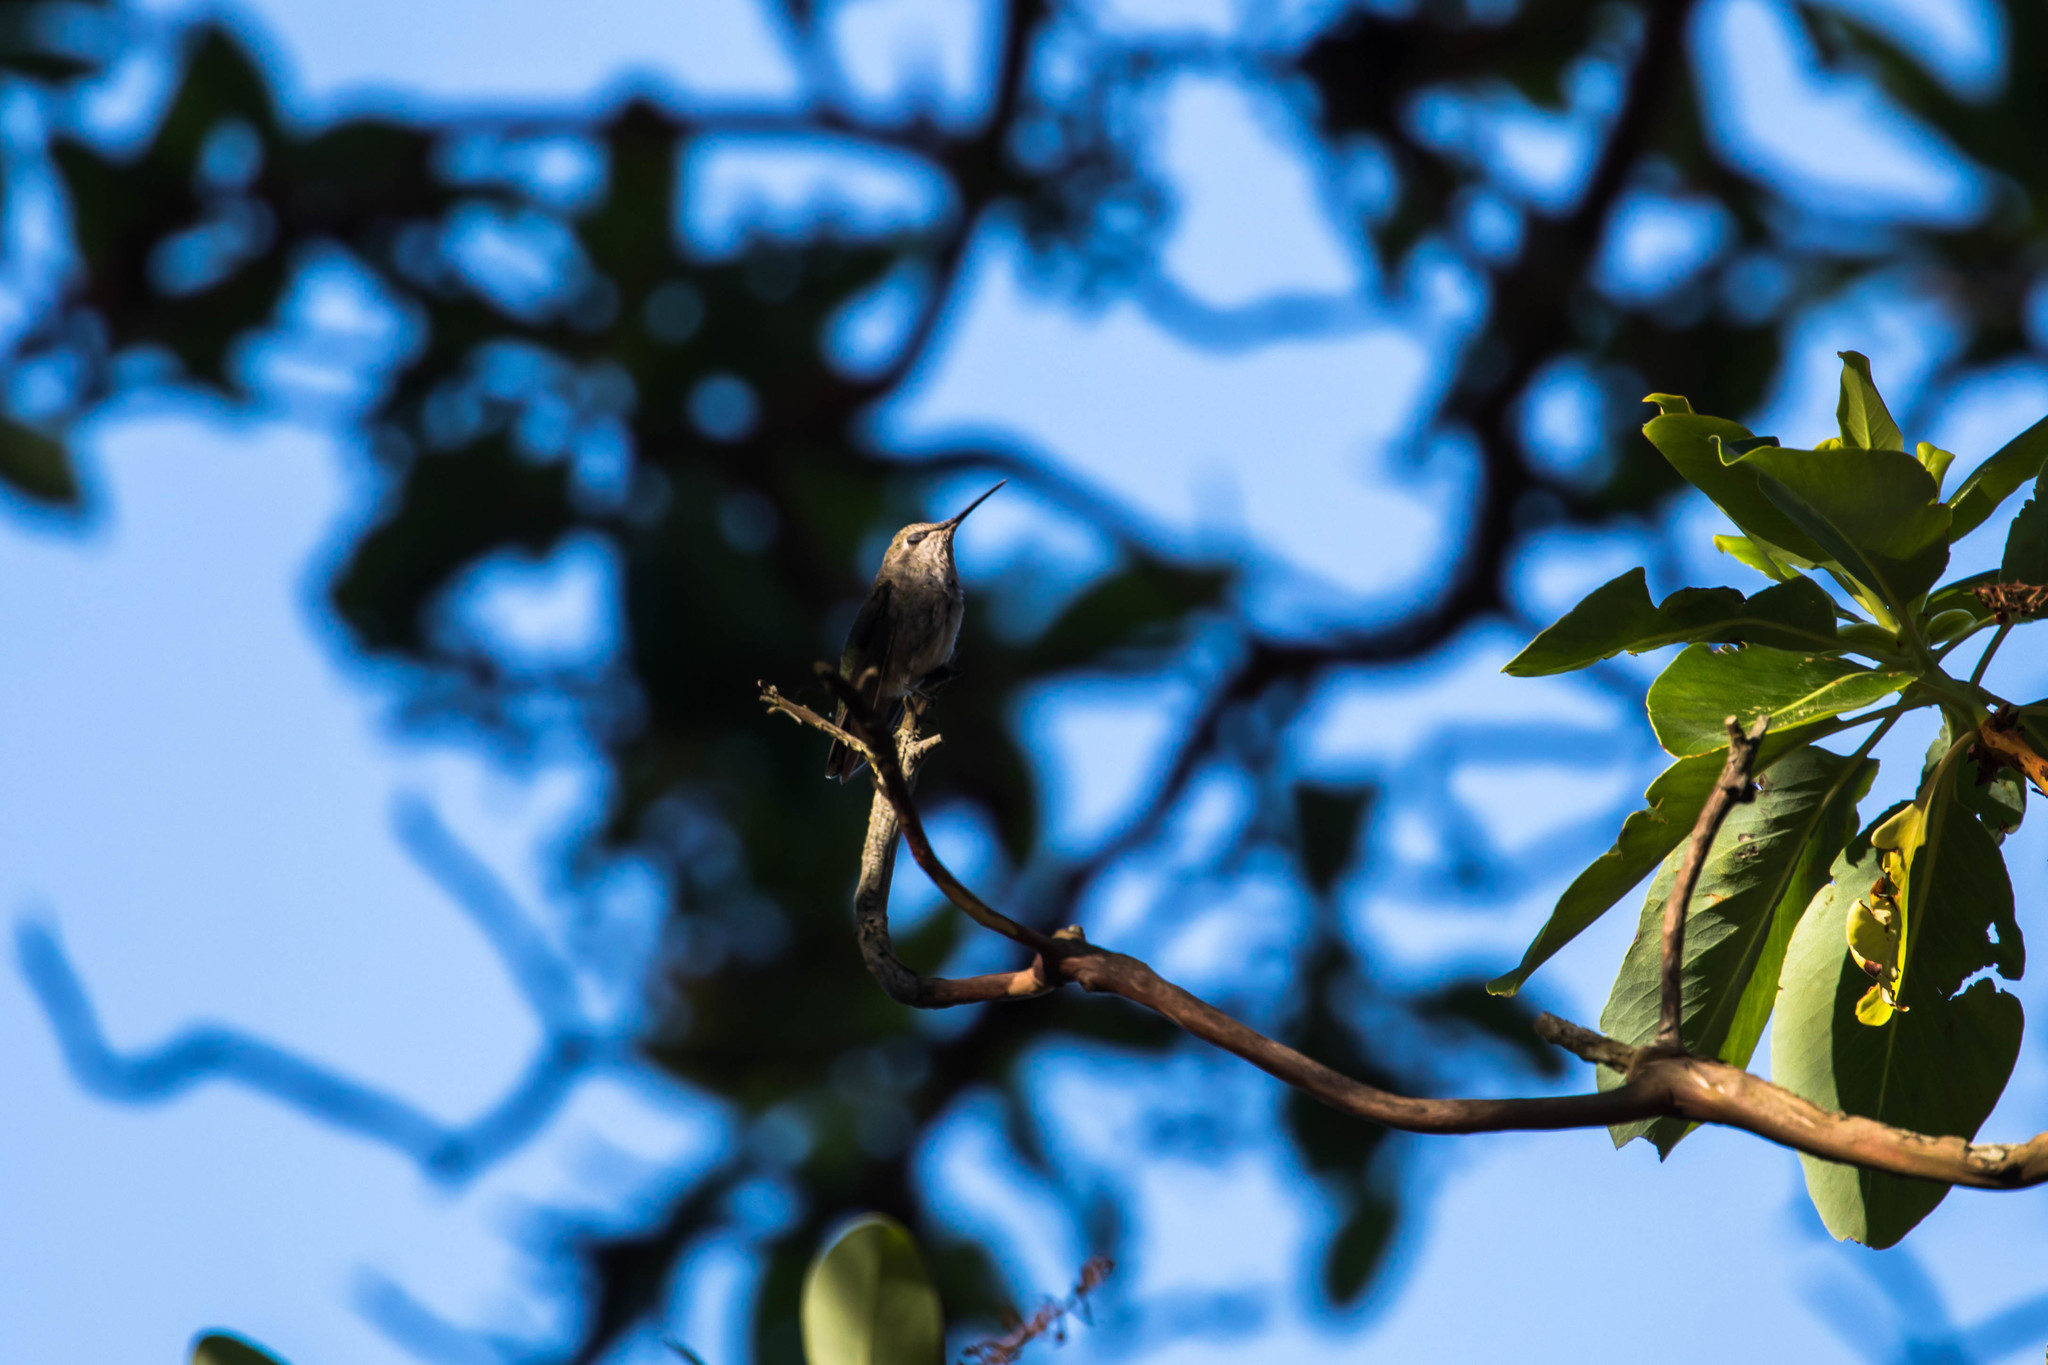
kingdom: Animalia
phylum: Chordata
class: Aves
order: Apodiformes
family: Trochilidae
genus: Calypte
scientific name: Calypte anna
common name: Anna's hummingbird
